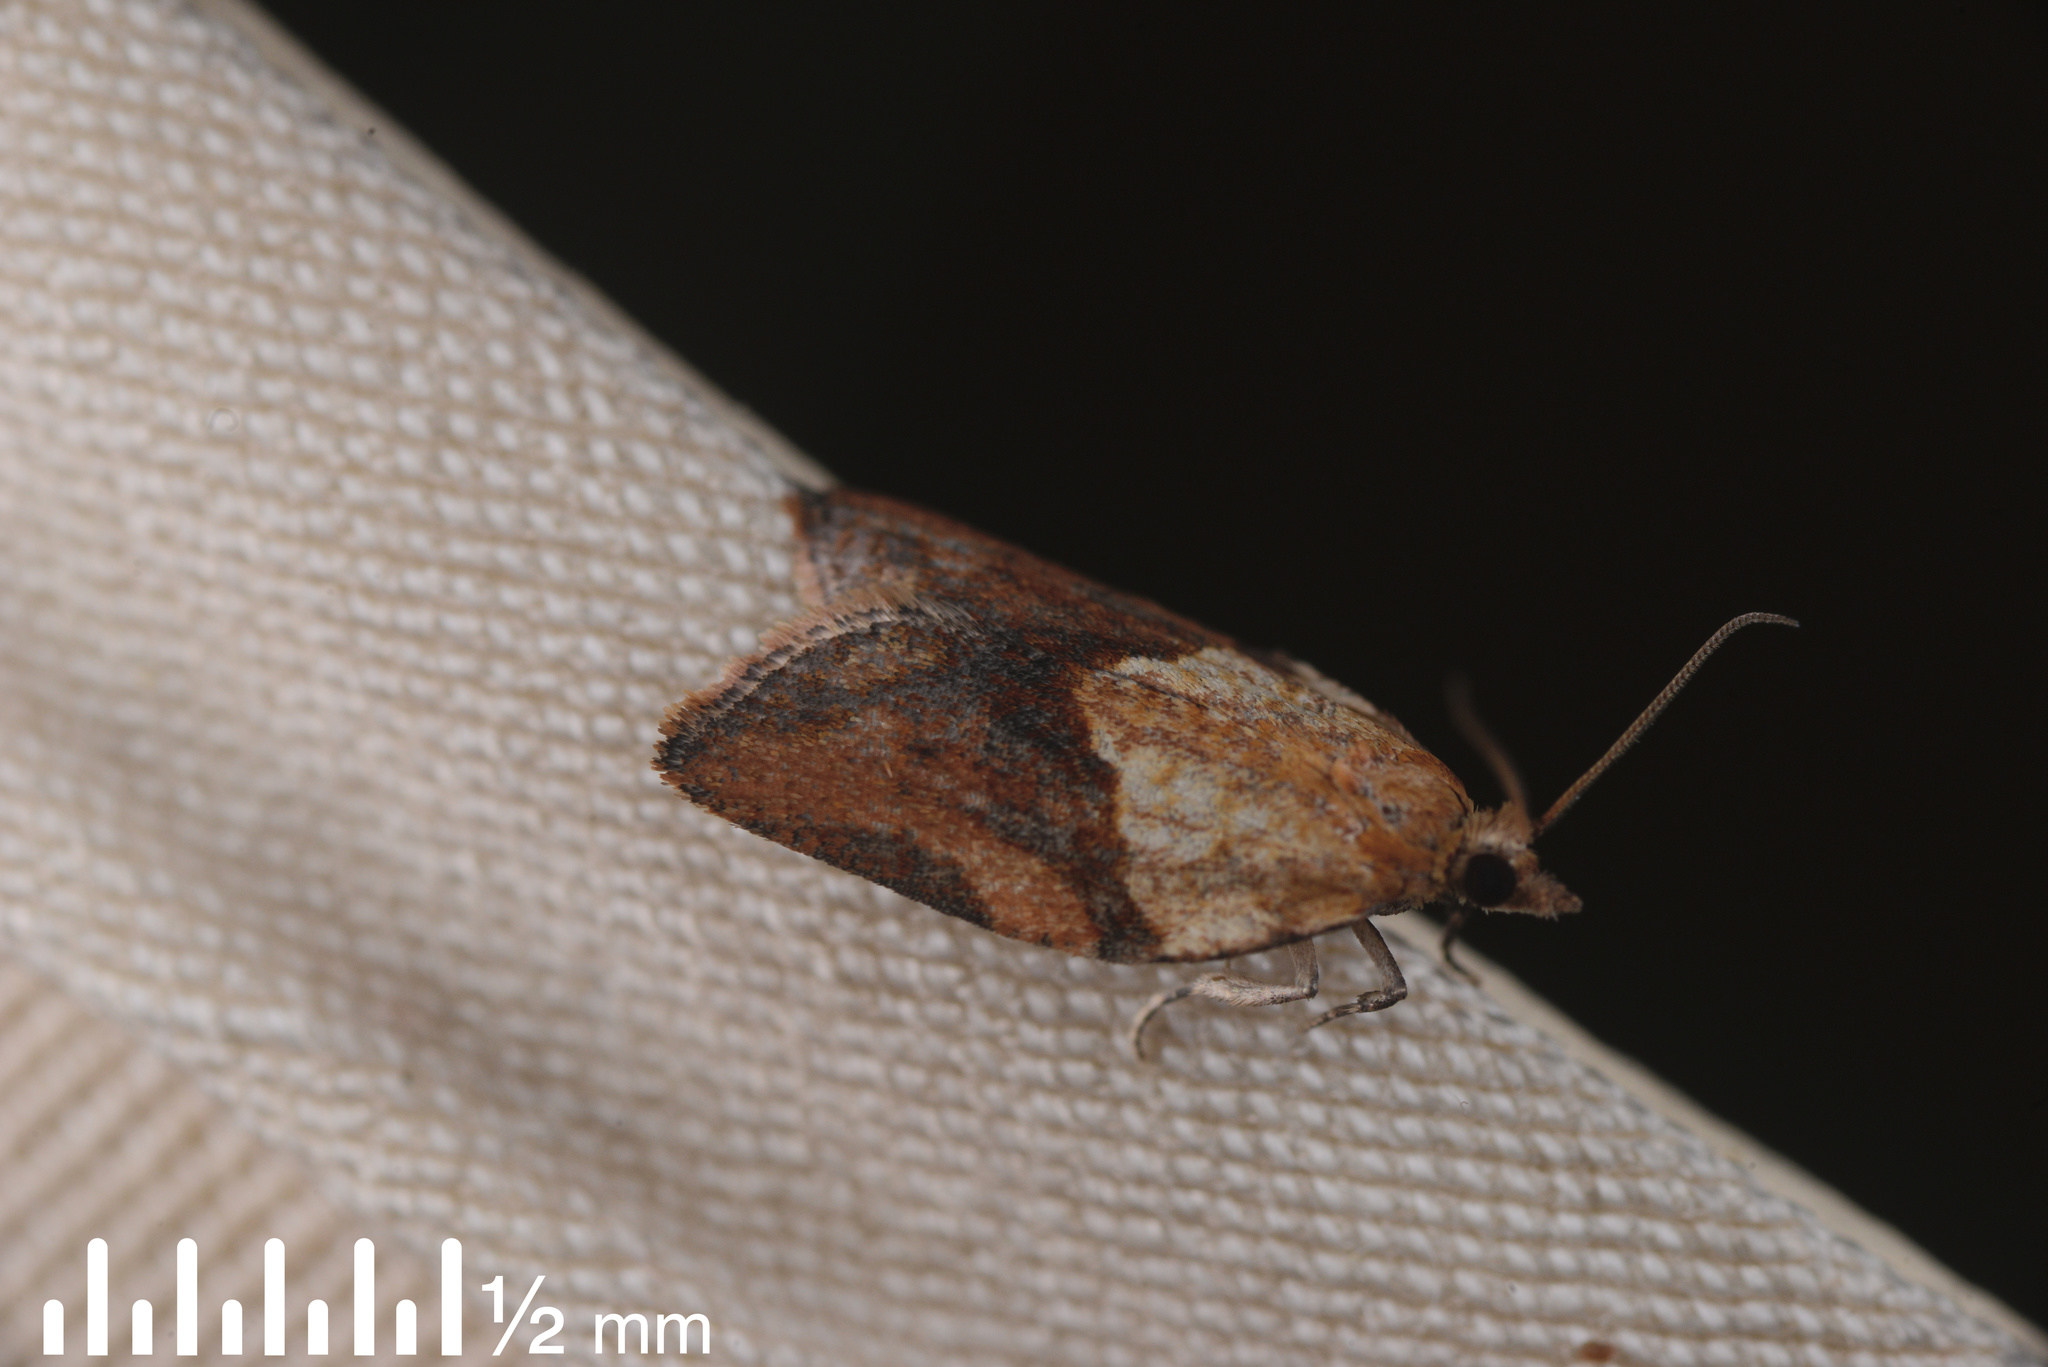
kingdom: Animalia
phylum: Arthropoda
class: Insecta
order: Lepidoptera
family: Tortricidae
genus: Epiphyas
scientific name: Epiphyas postvittana
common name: Light brown apple moth
